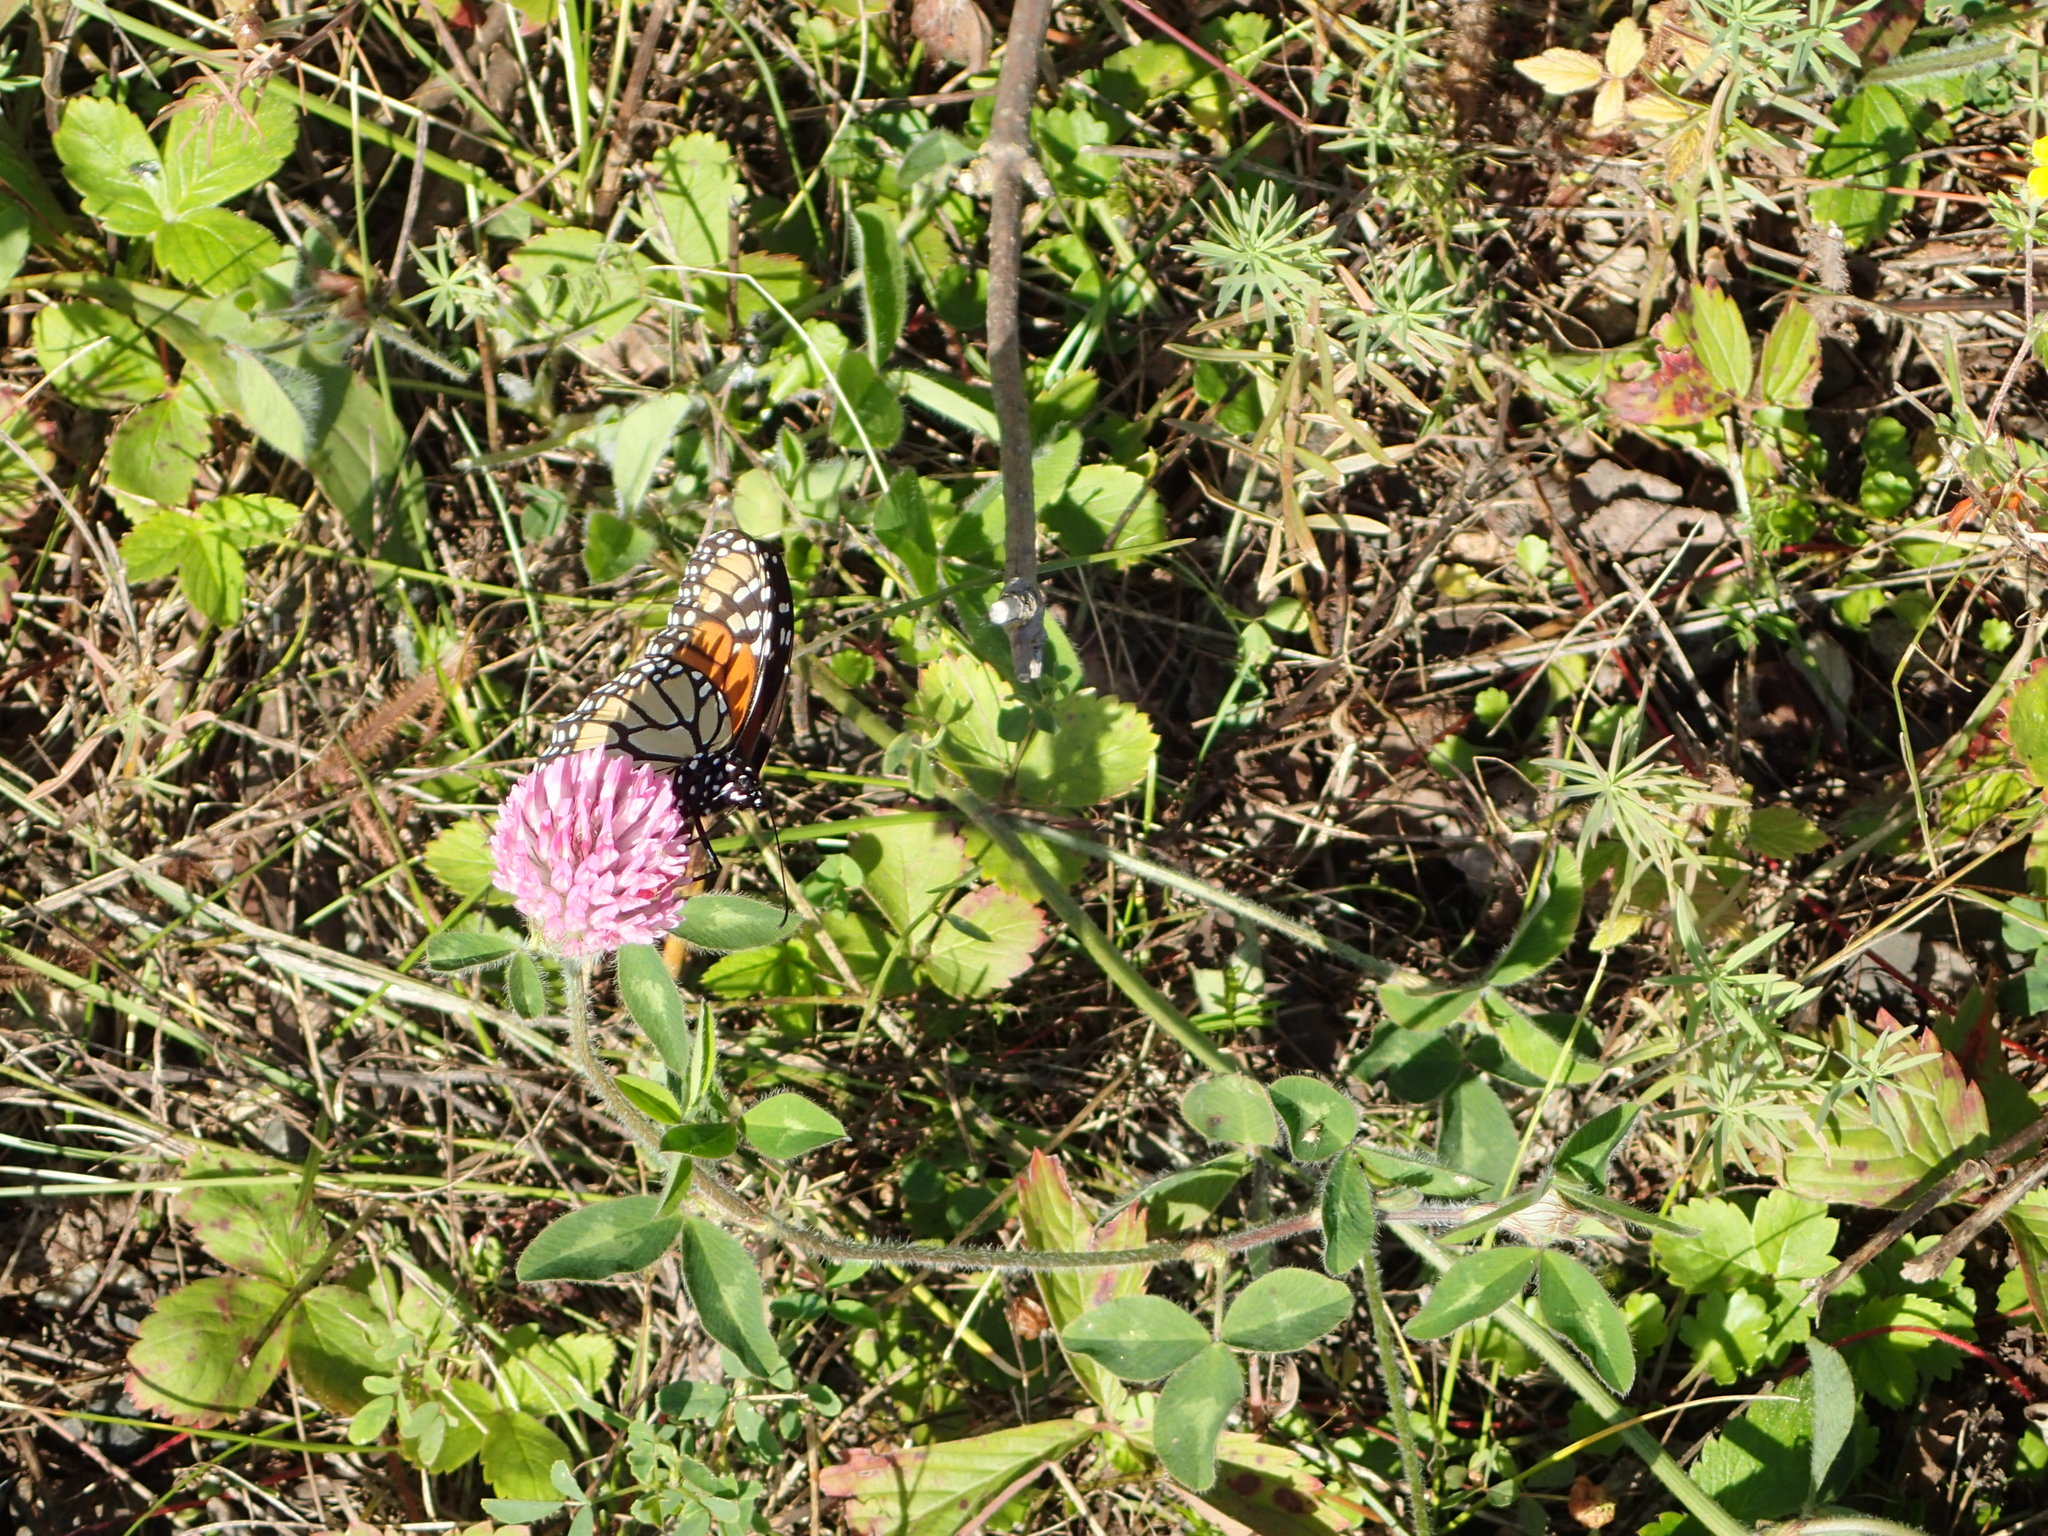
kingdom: Animalia
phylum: Arthropoda
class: Insecta
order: Lepidoptera
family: Nymphalidae
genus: Danaus
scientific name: Danaus plexippus
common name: Monarch
